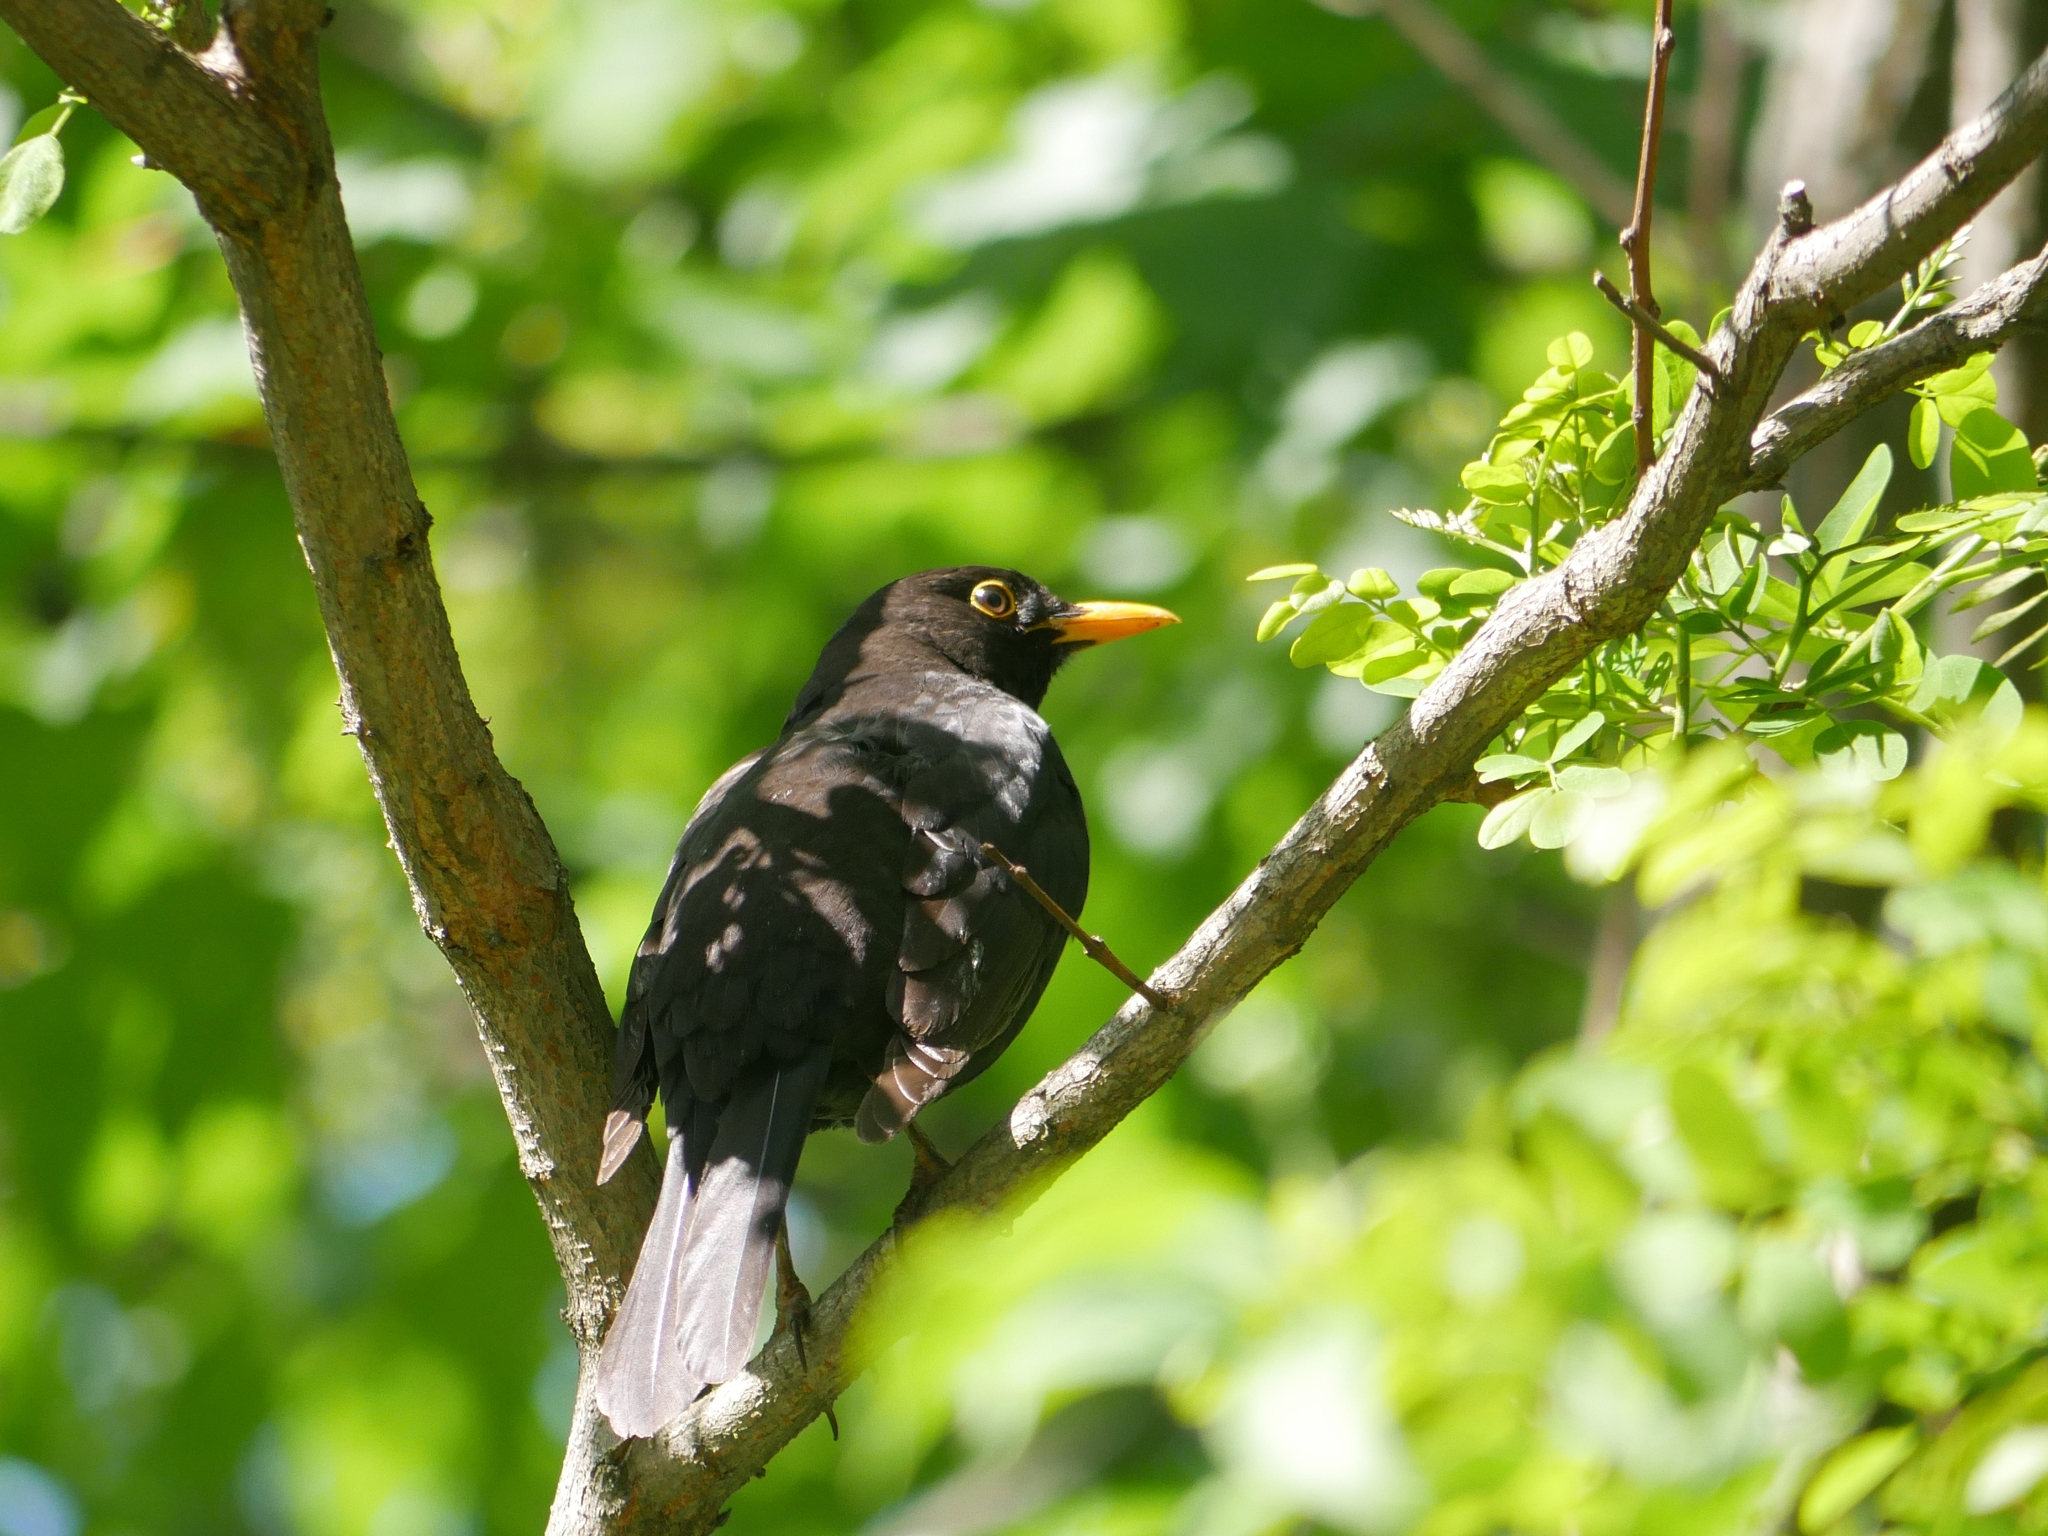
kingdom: Animalia
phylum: Chordata
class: Aves
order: Passeriformes
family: Turdidae
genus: Turdus
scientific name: Turdus merula
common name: Common blackbird
